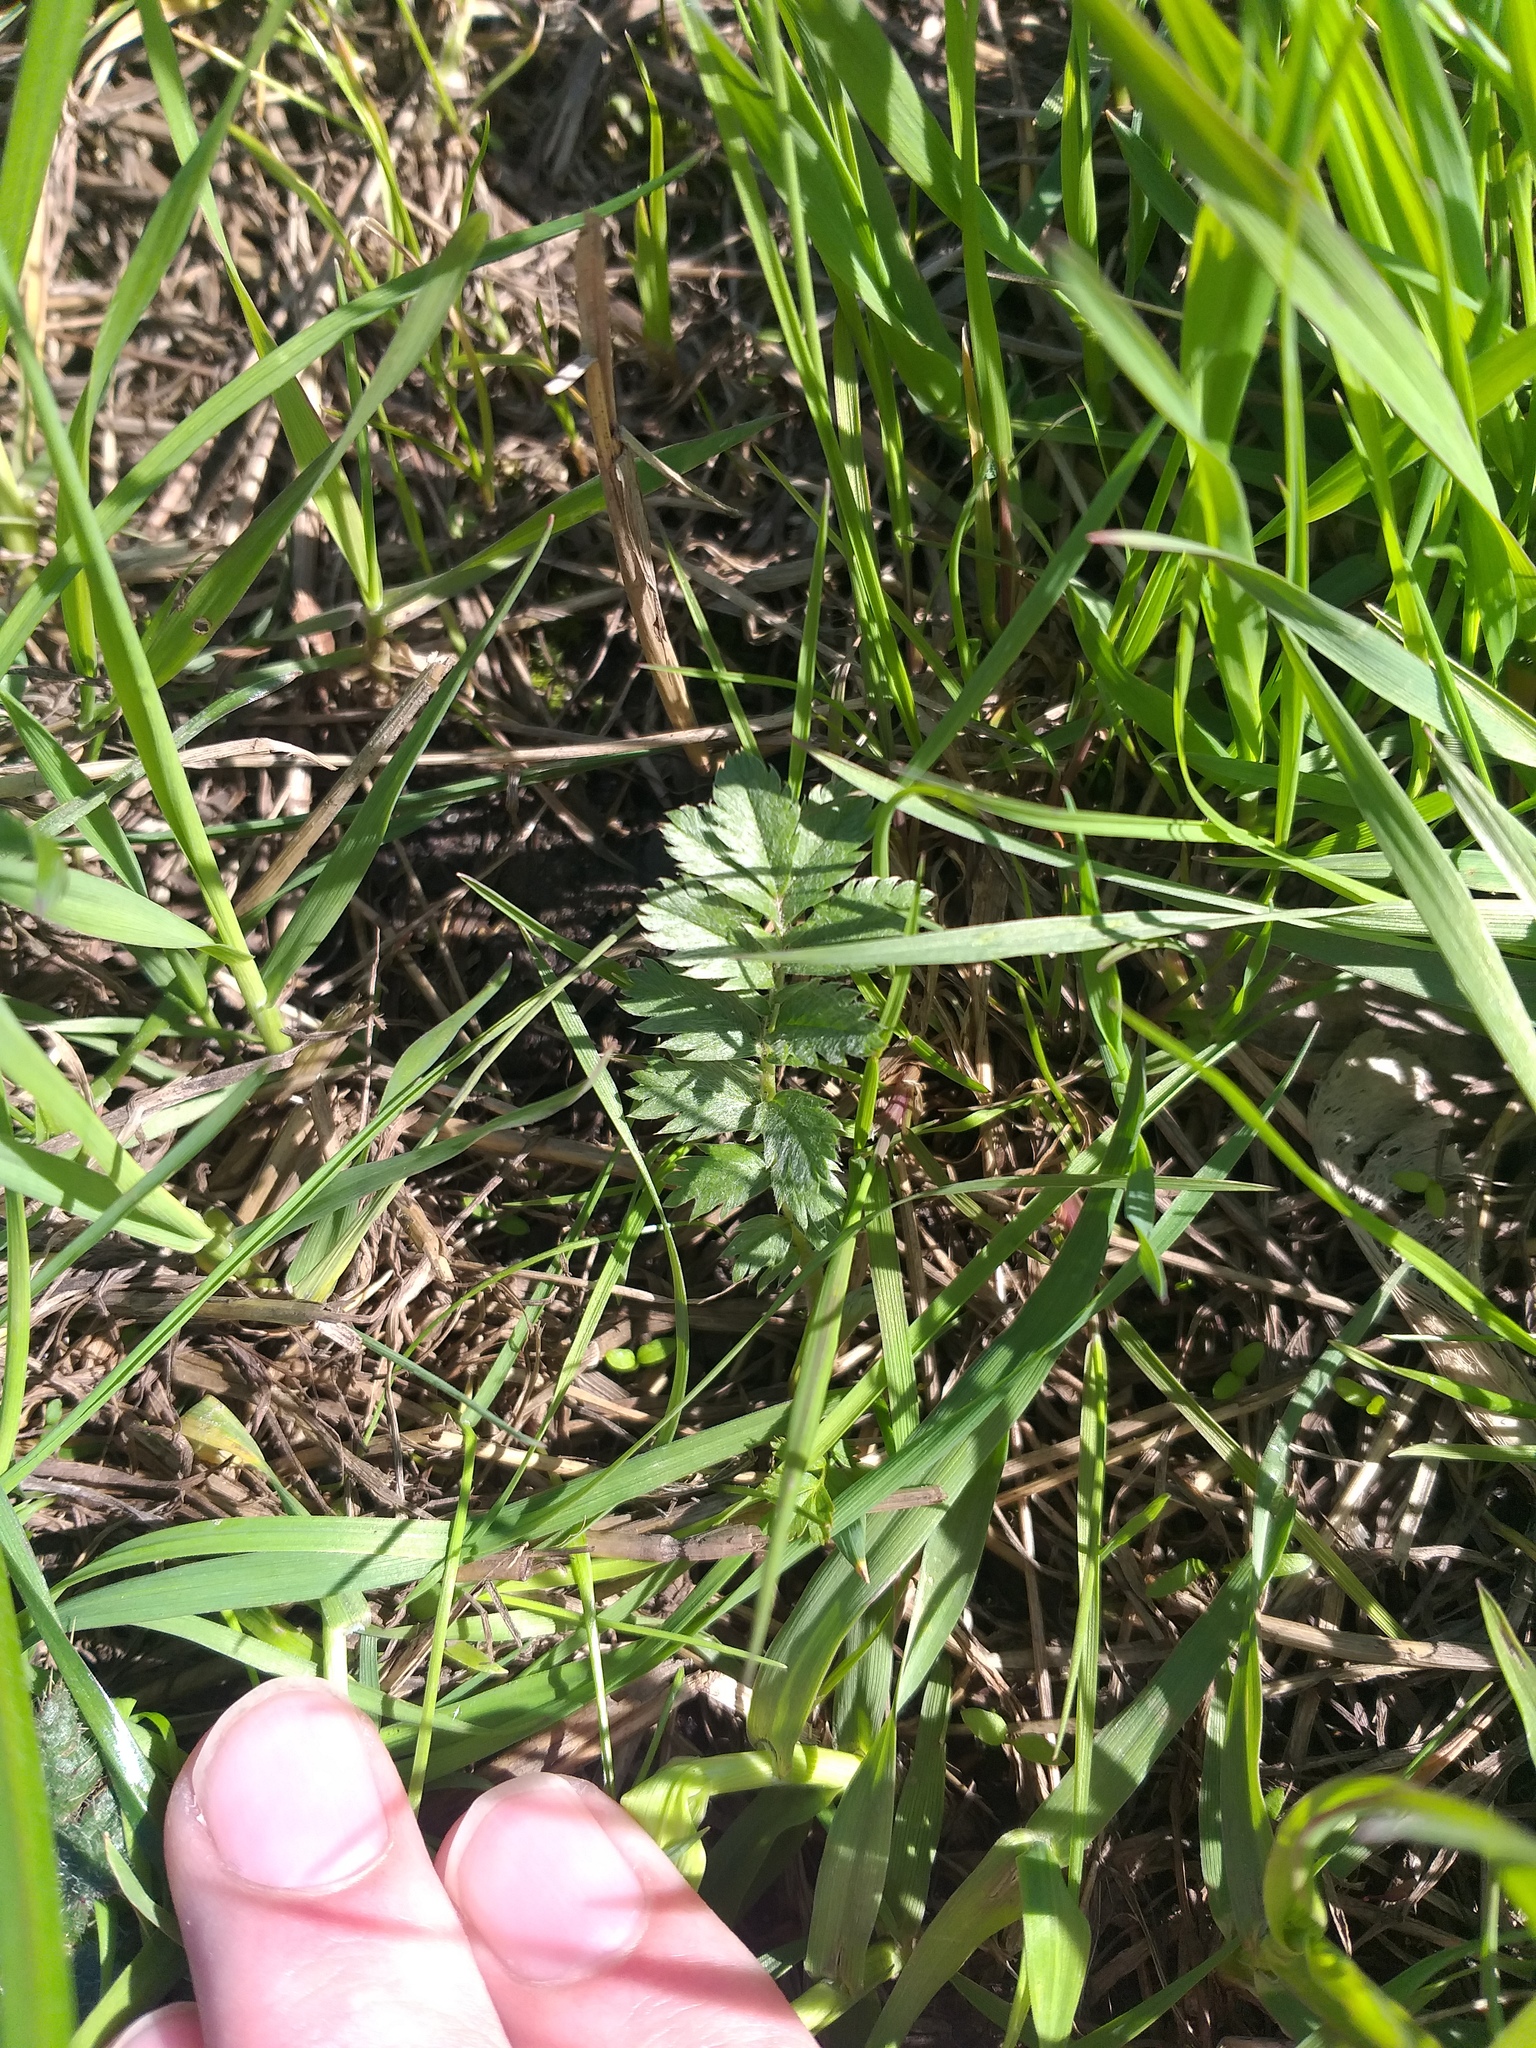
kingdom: Plantae
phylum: Tracheophyta
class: Magnoliopsida
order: Rosales
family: Rosaceae
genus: Argentina
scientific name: Argentina anserina
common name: Common silverweed
